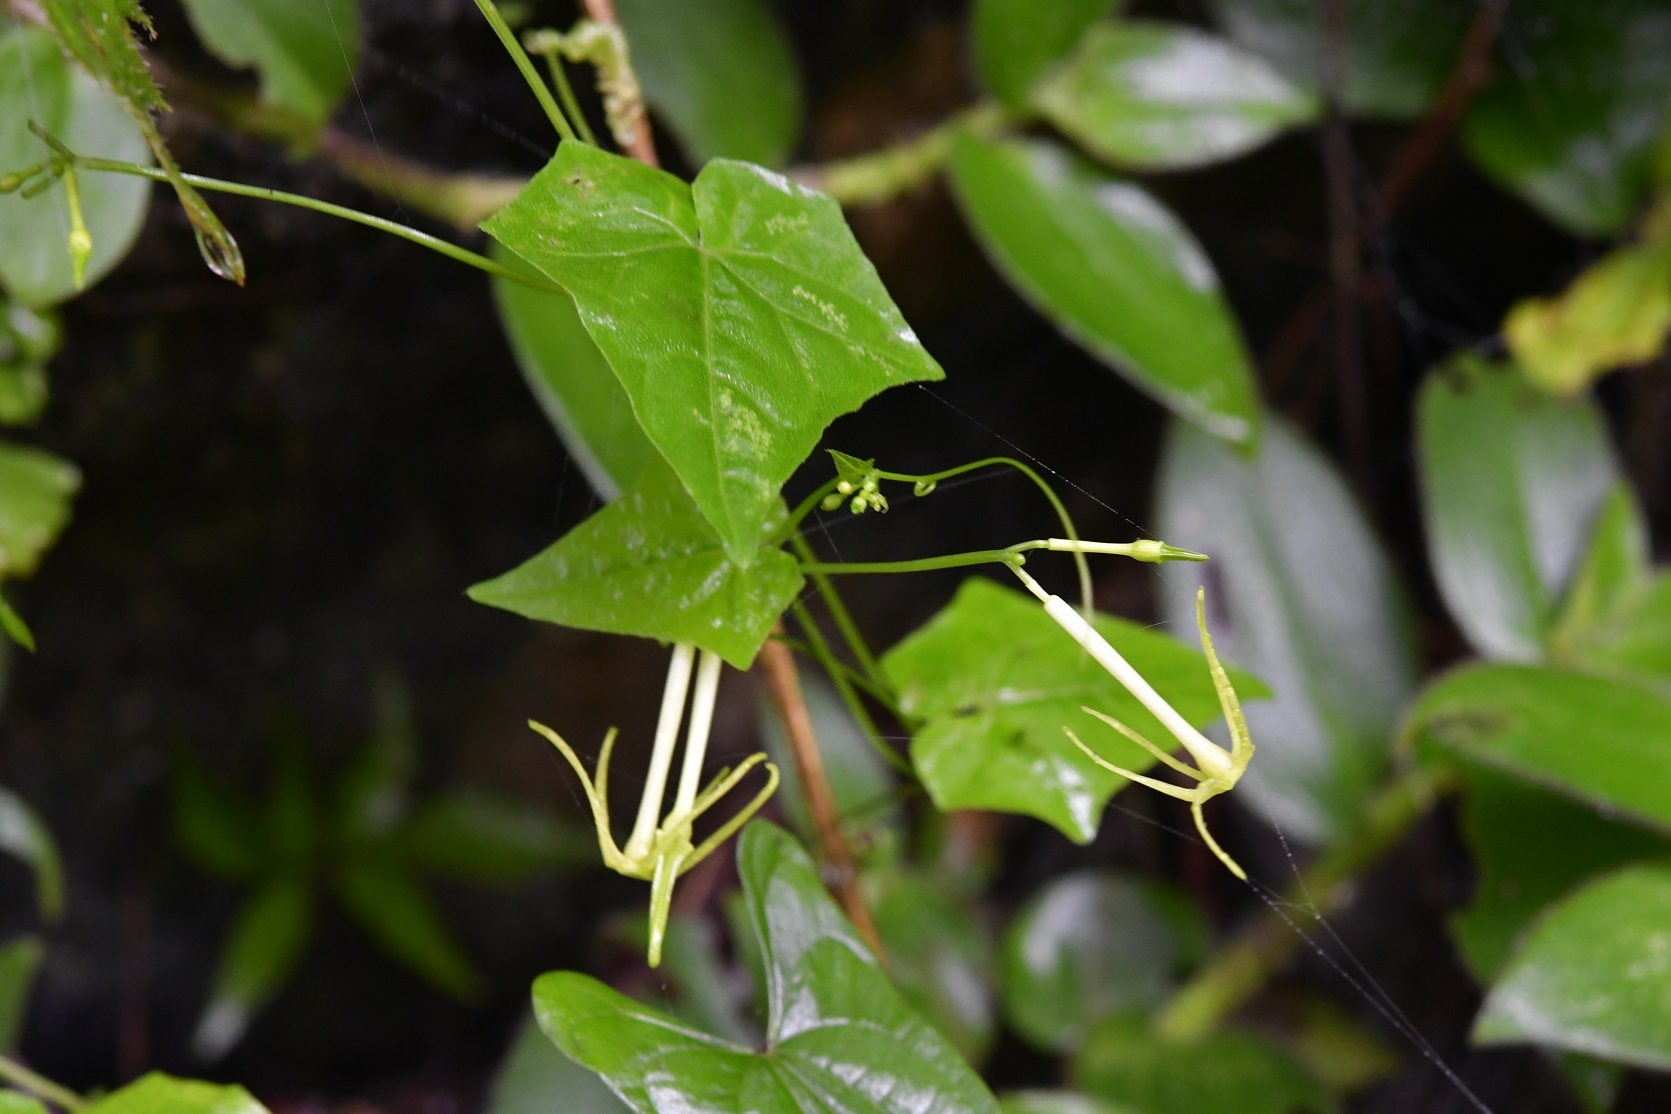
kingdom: Plantae
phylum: Tracheophyta
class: Magnoliopsida
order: Cucurbitales
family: Cucurbitaceae
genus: Cyclanthera
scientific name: Cyclanthera carthagenensis
